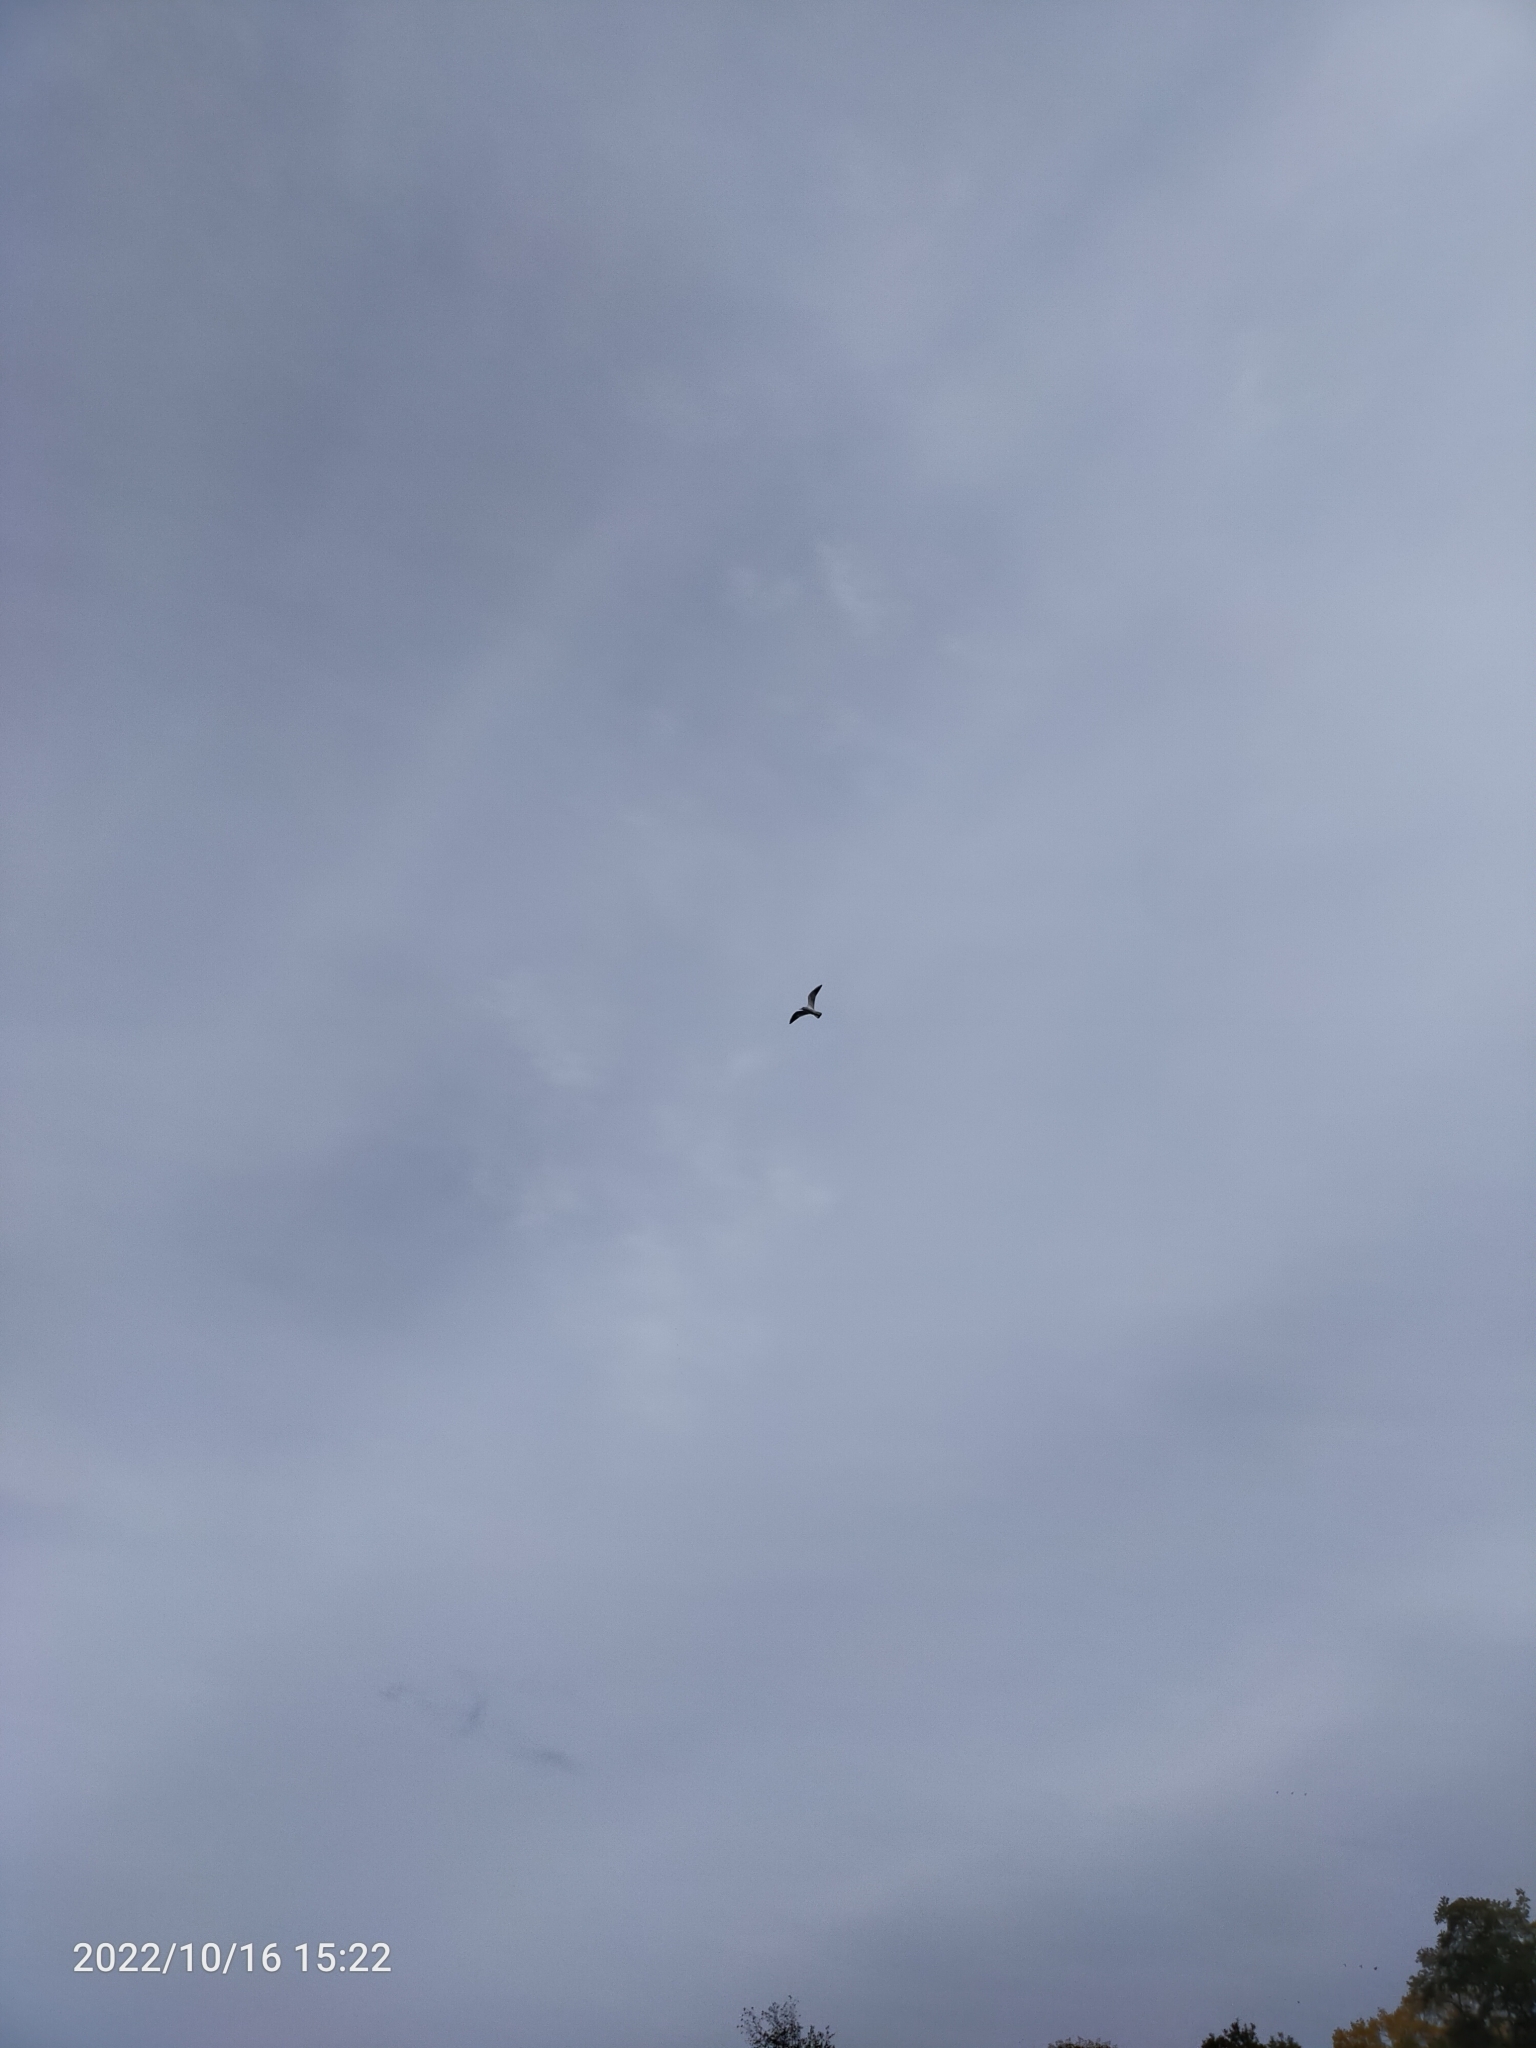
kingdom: Animalia
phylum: Chordata
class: Aves
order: Charadriiformes
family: Laridae
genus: Chroicocephalus
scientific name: Chroicocephalus ridibundus
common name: Black-headed gull
